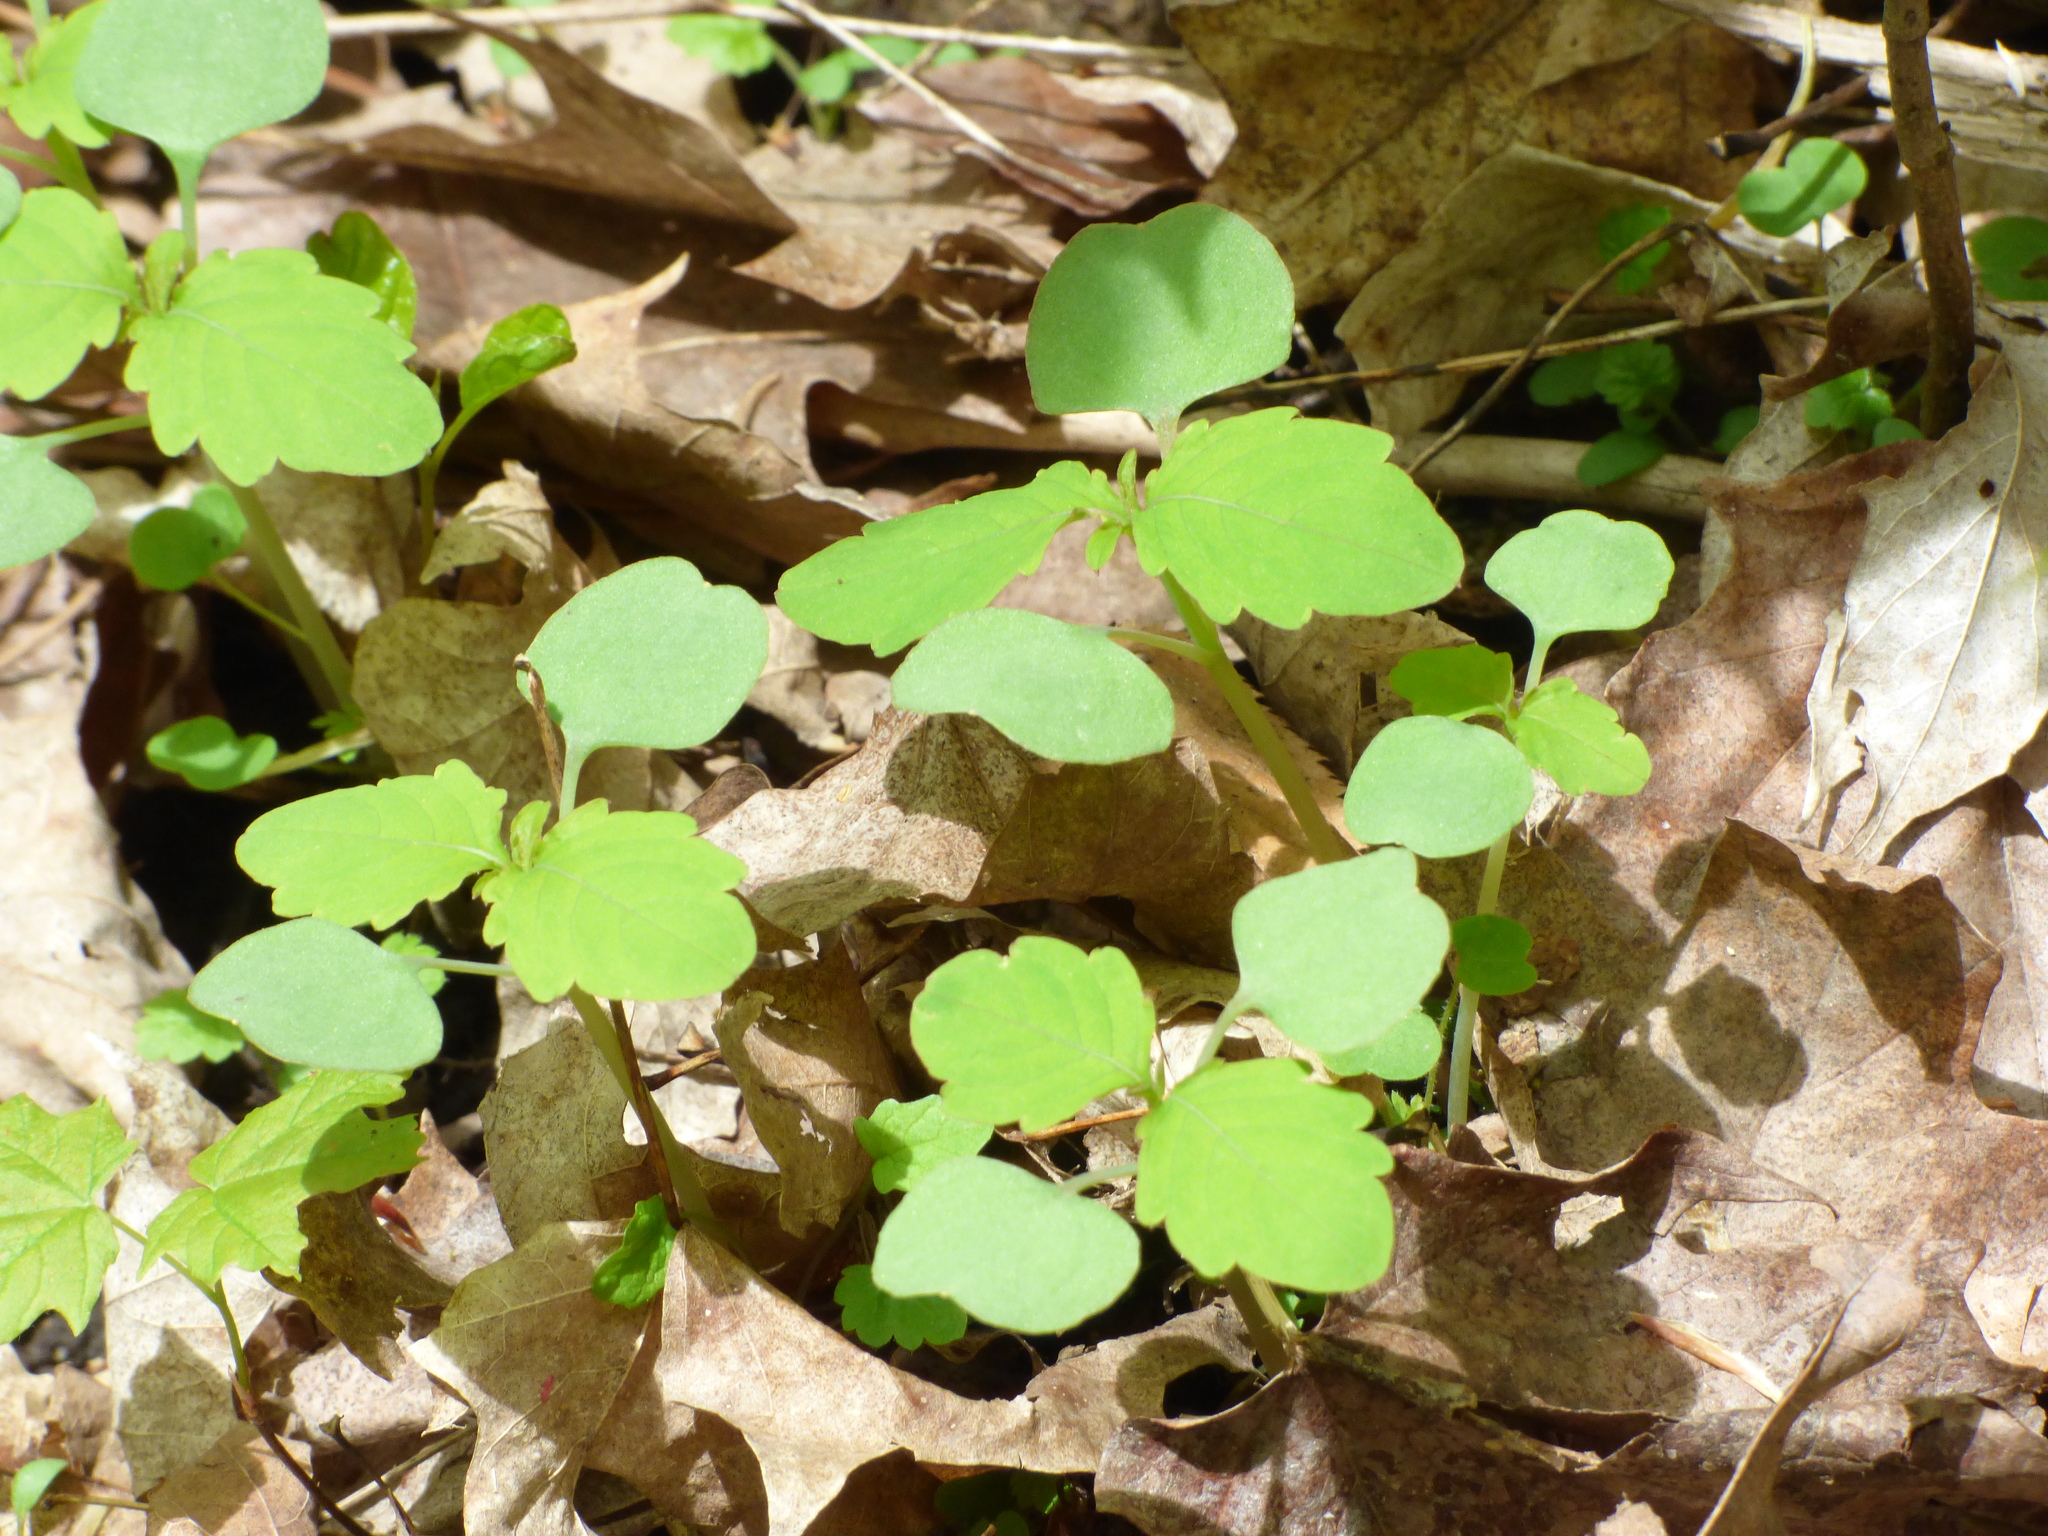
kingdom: Plantae
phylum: Tracheophyta
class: Magnoliopsida
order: Ericales
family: Balsaminaceae
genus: Impatiens
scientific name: Impatiens capensis
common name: Orange balsam
